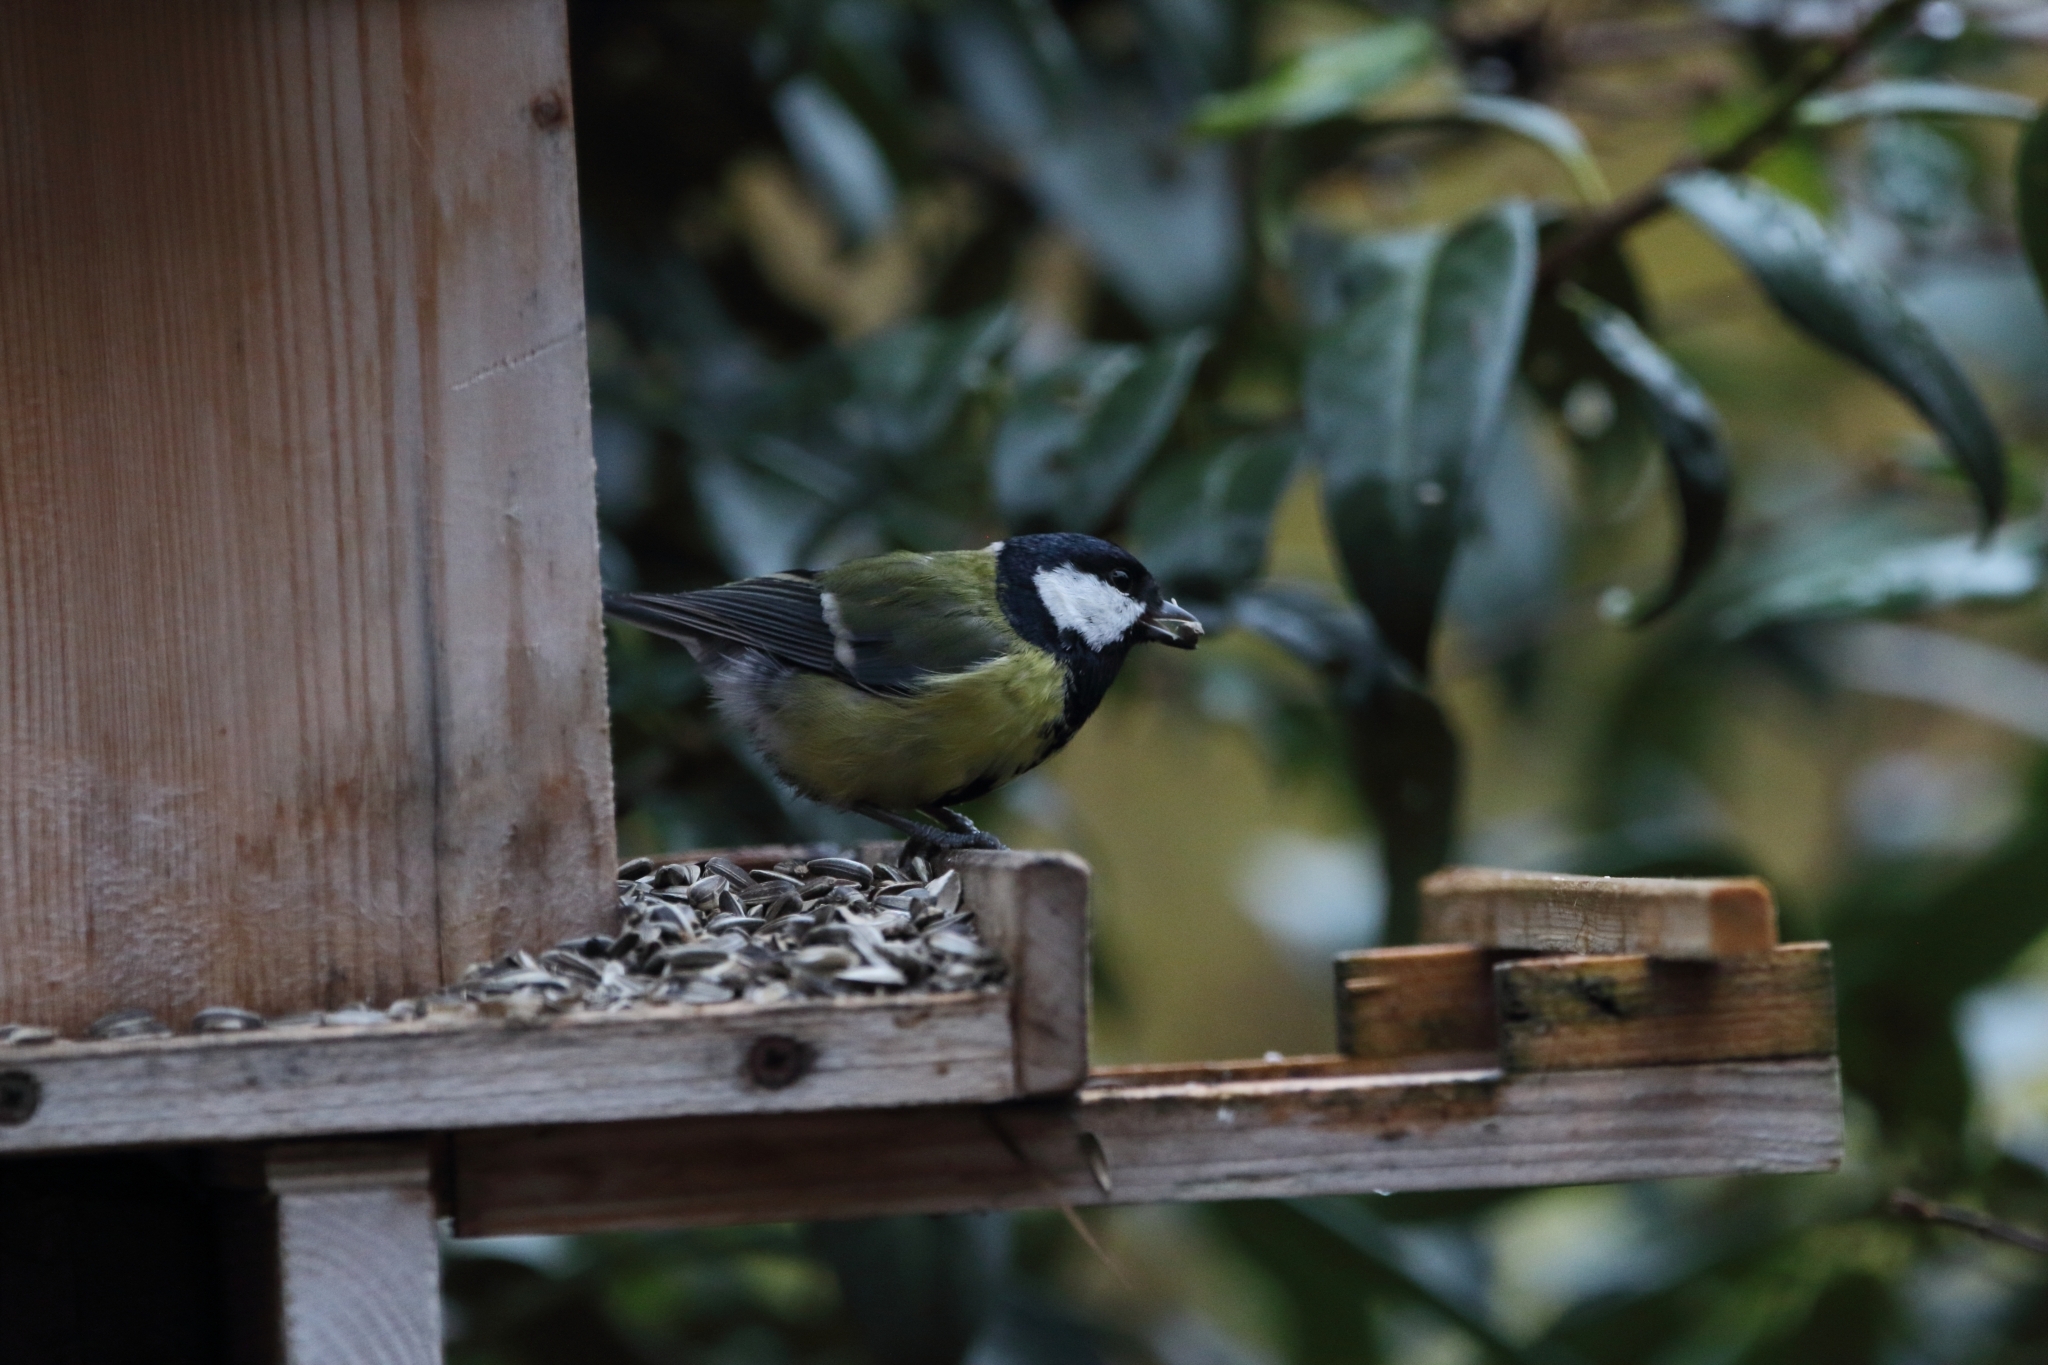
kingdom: Animalia
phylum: Chordata
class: Aves
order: Passeriformes
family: Paridae
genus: Parus
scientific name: Parus major
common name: Great tit
